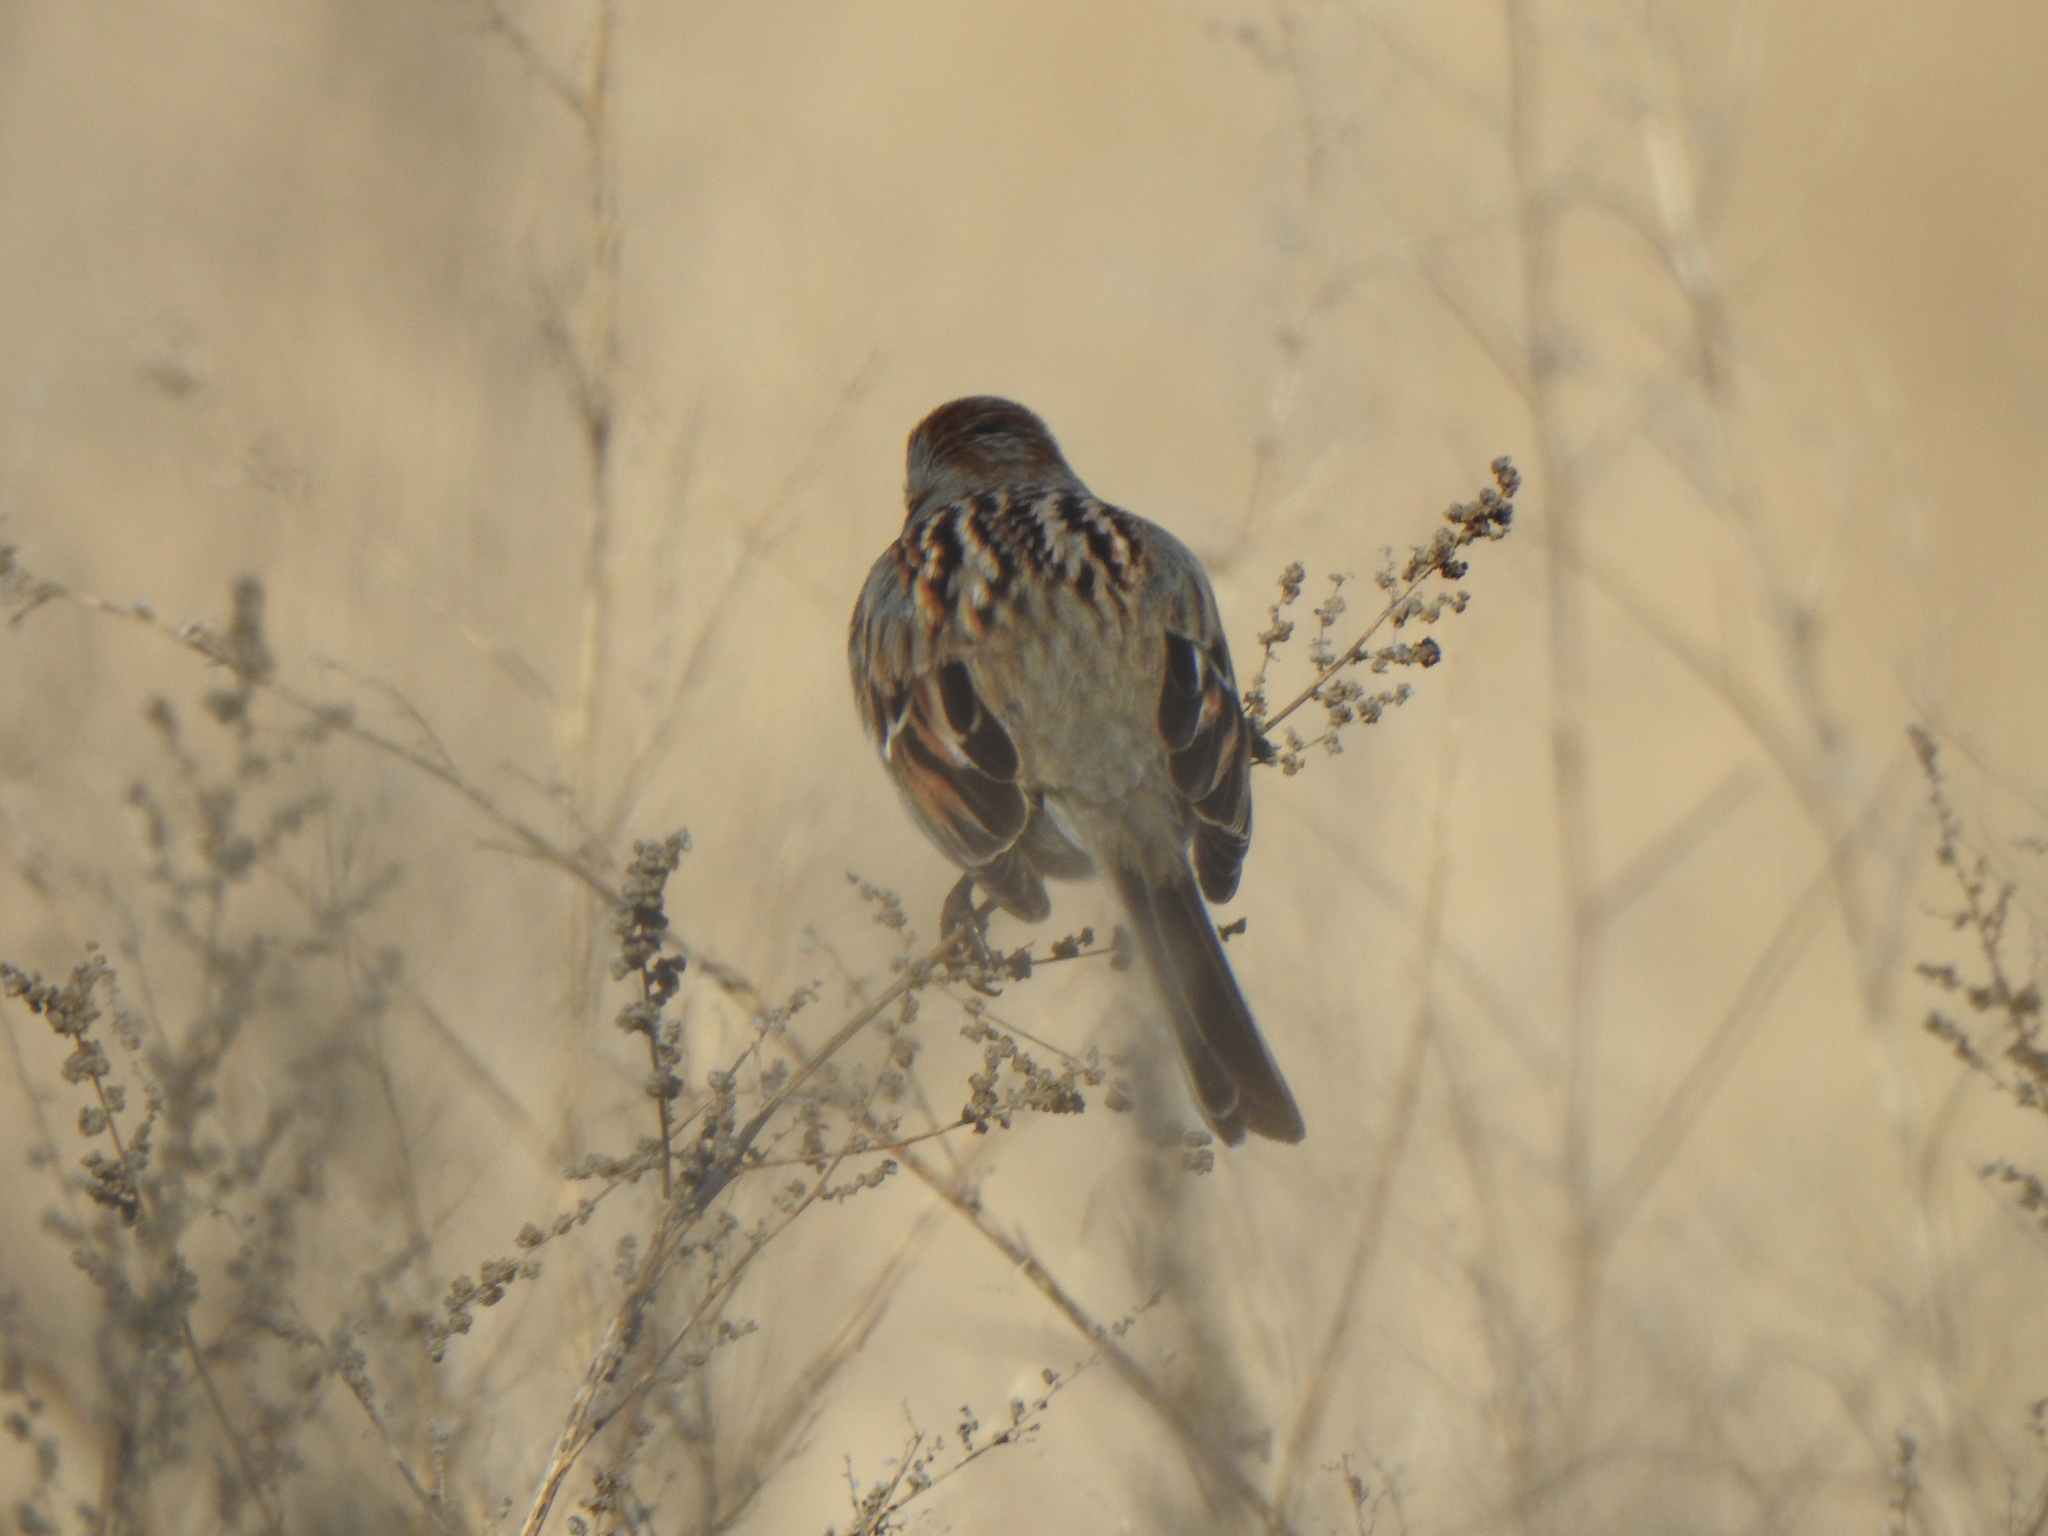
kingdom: Animalia
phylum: Chordata
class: Aves
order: Passeriformes
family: Passerellidae
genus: Spizelloides
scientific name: Spizelloides arborea
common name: American tree sparrow
